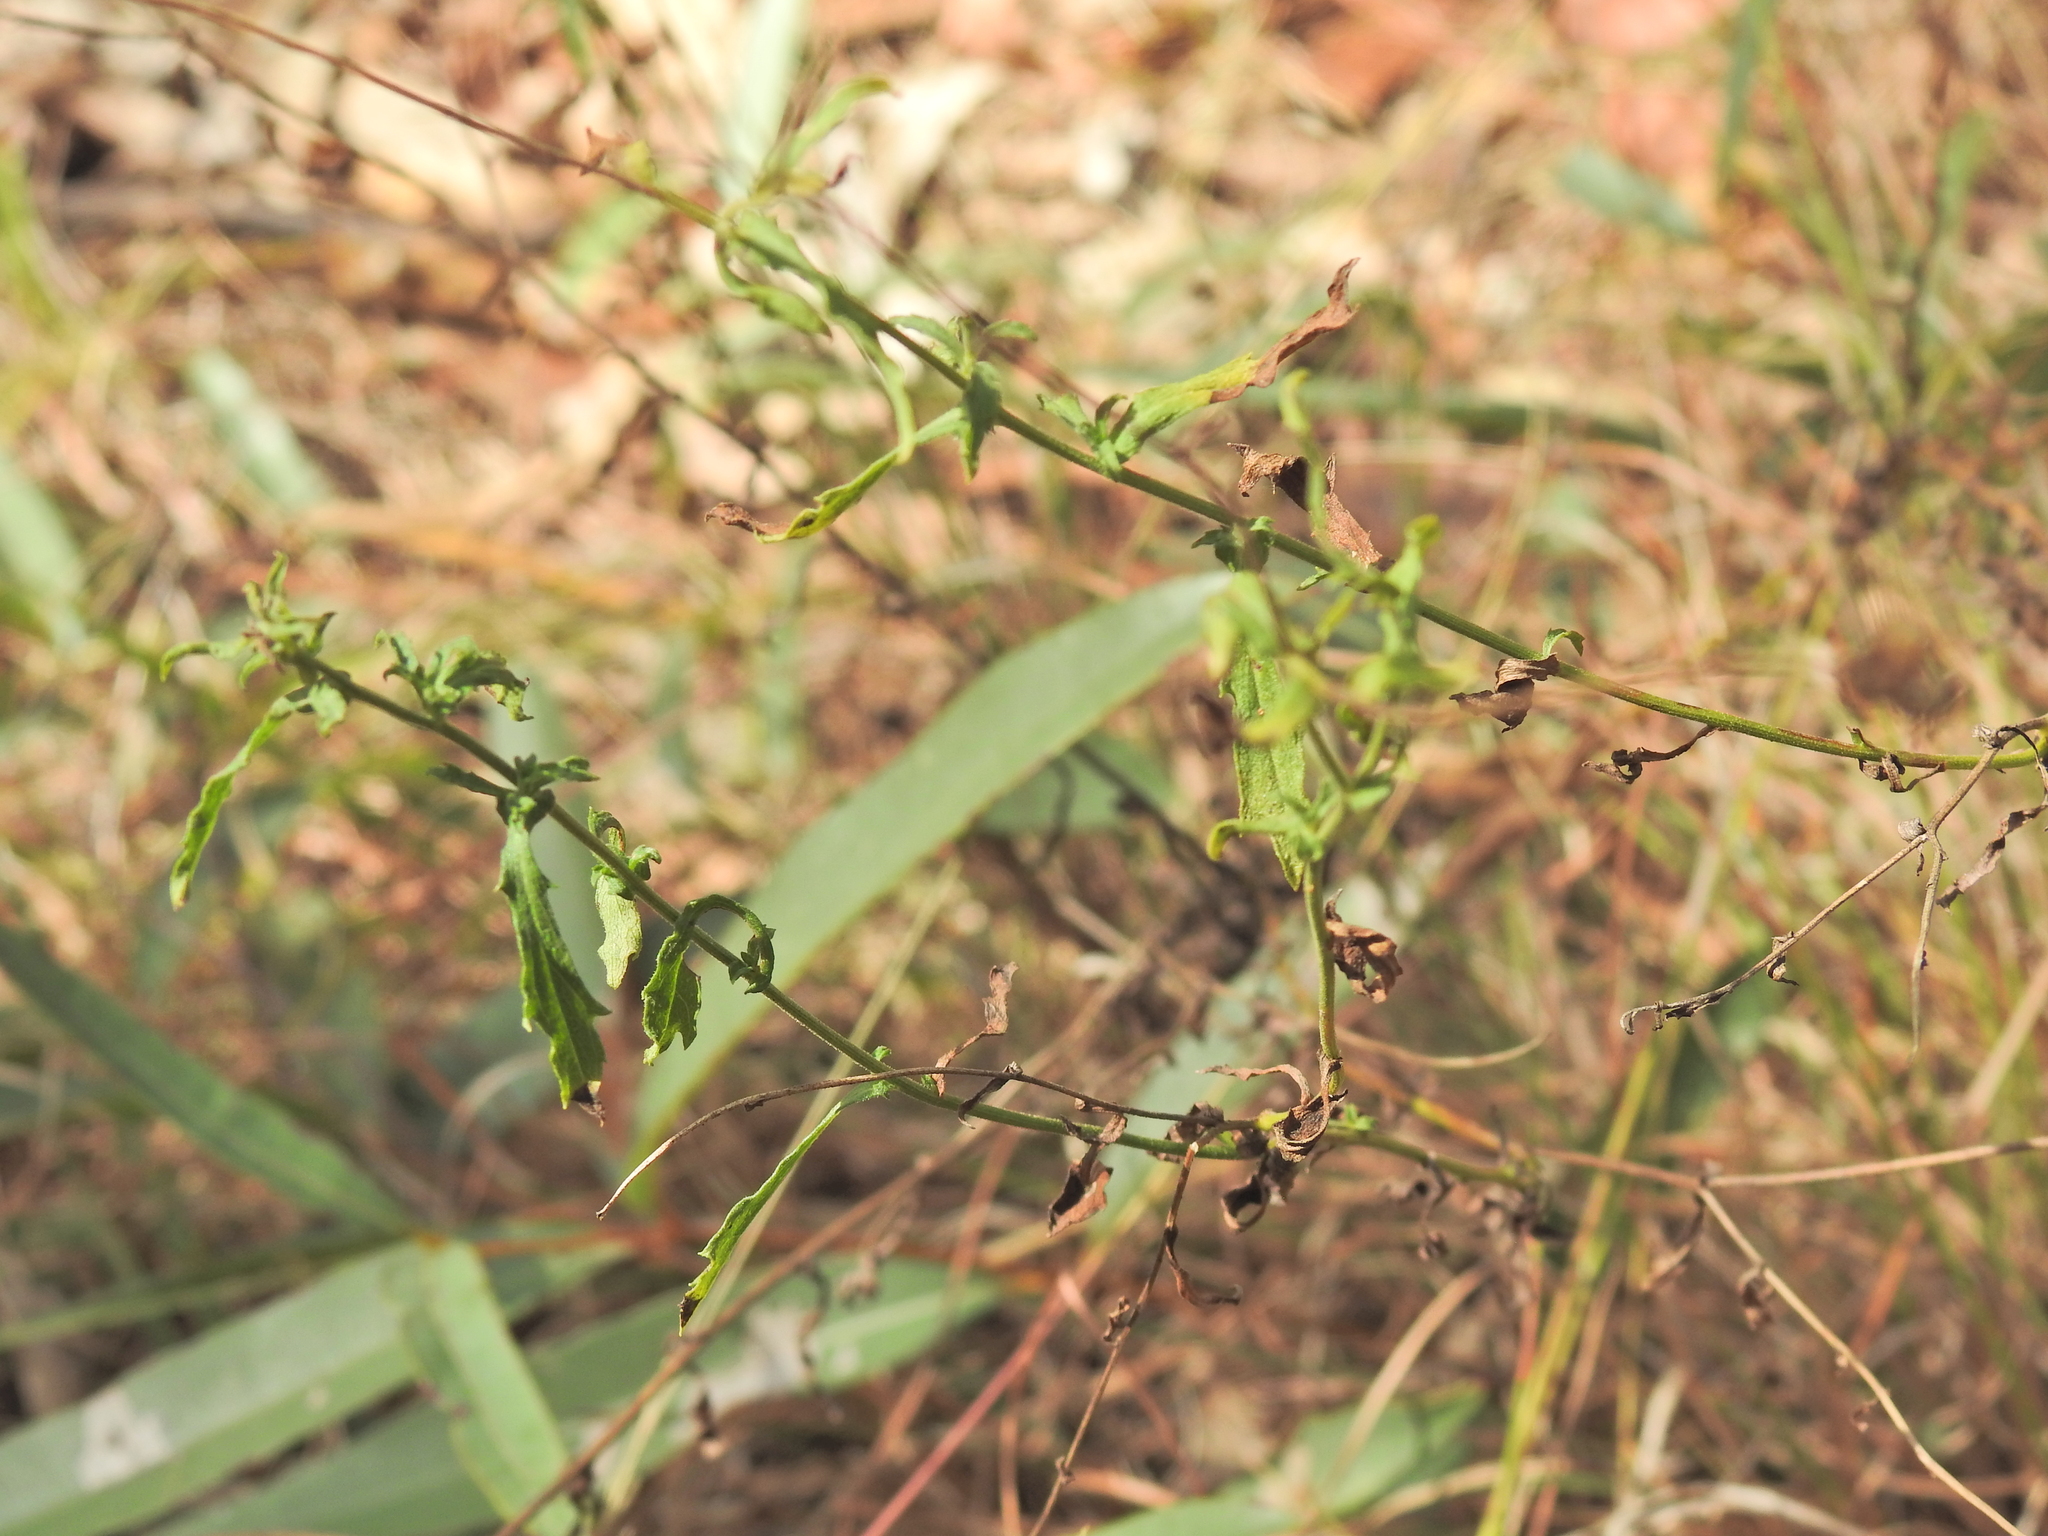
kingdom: Plantae
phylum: Tracheophyta
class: Magnoliopsida
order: Asterales
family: Asteraceae
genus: Calotis
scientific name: Calotis dentex
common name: White bur-daisy
